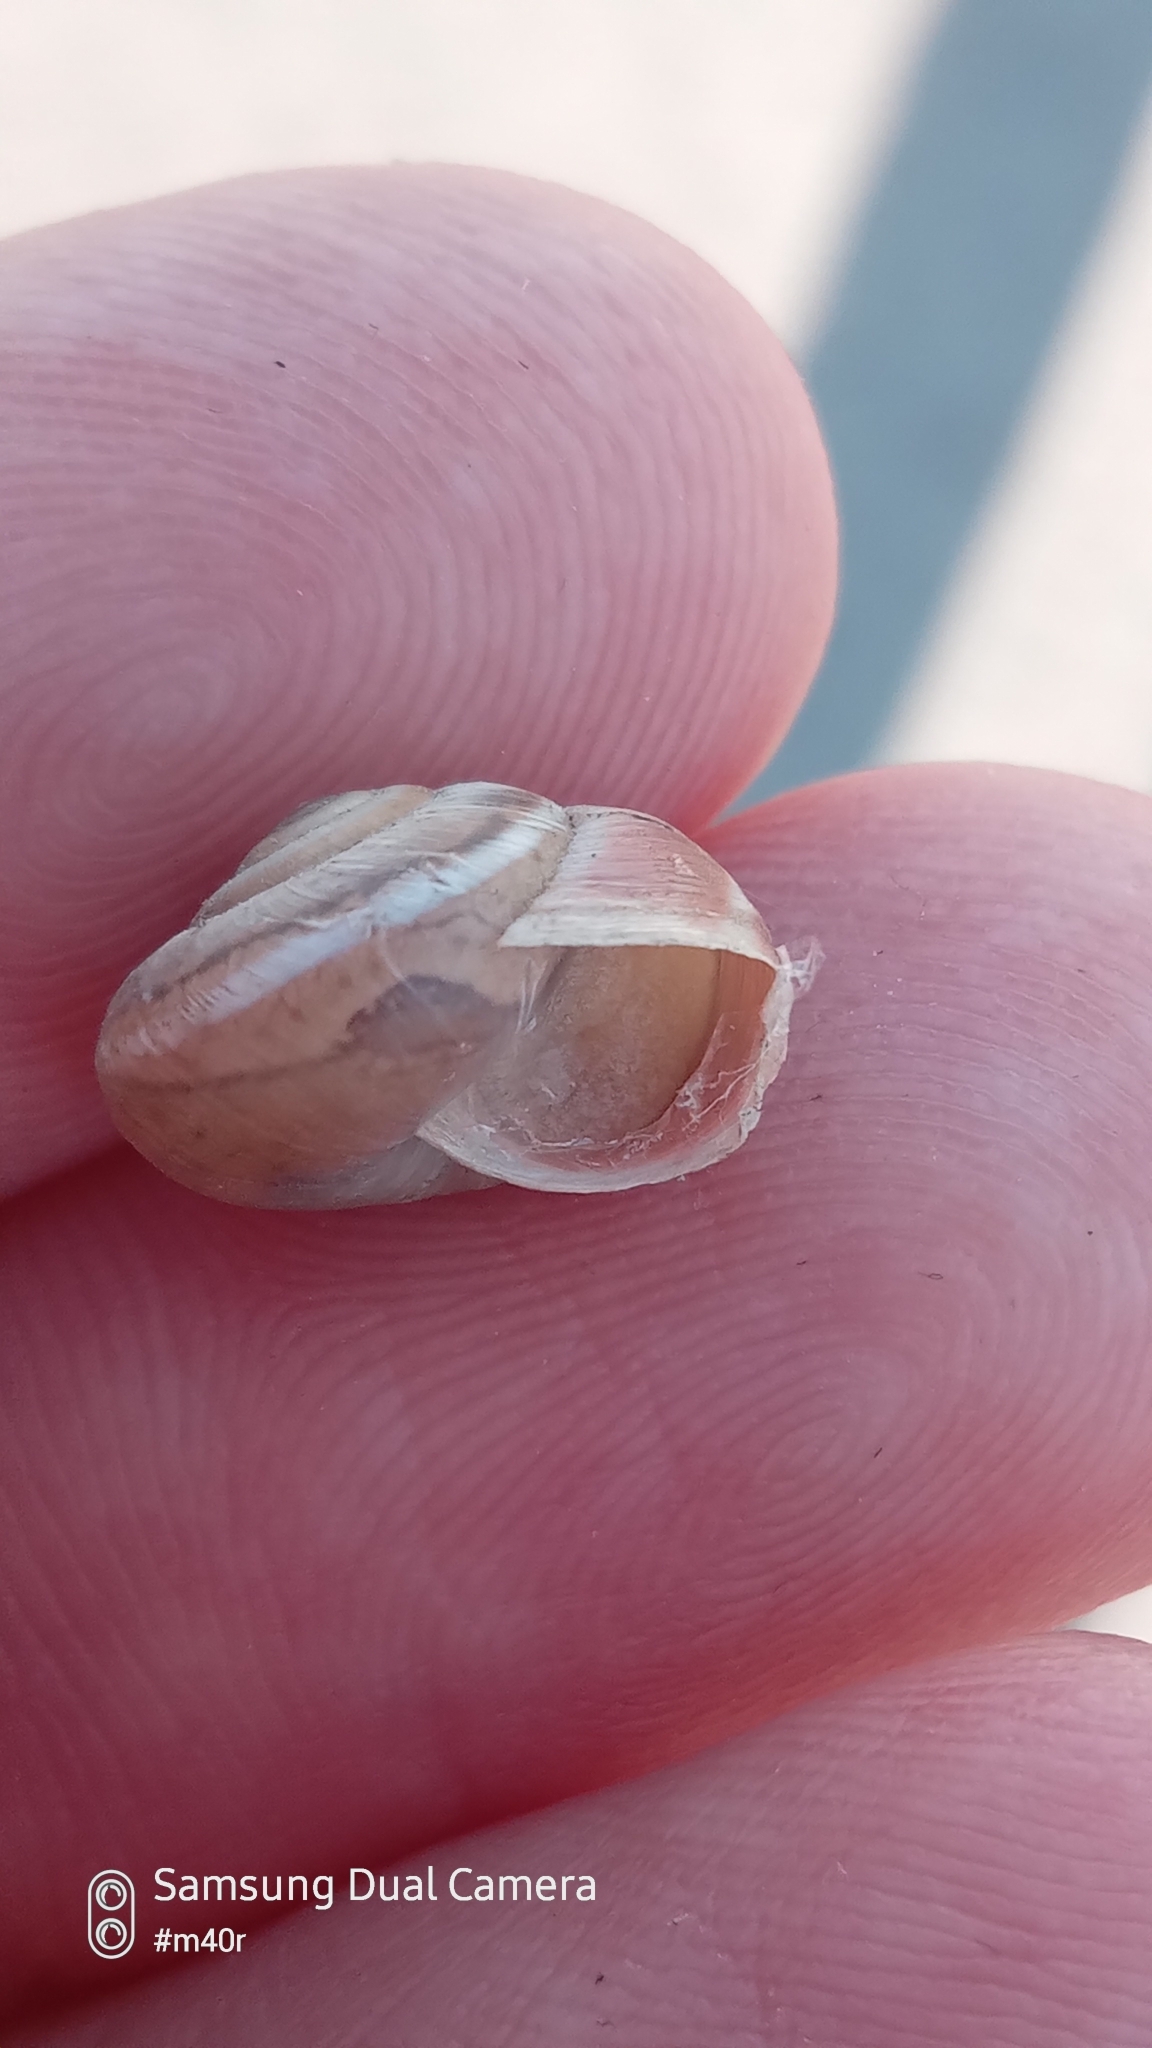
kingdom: Animalia
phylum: Mollusca
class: Gastropoda
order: Stylommatophora
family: Hygromiidae
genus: Harmozica
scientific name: Harmozica ravergiensis
